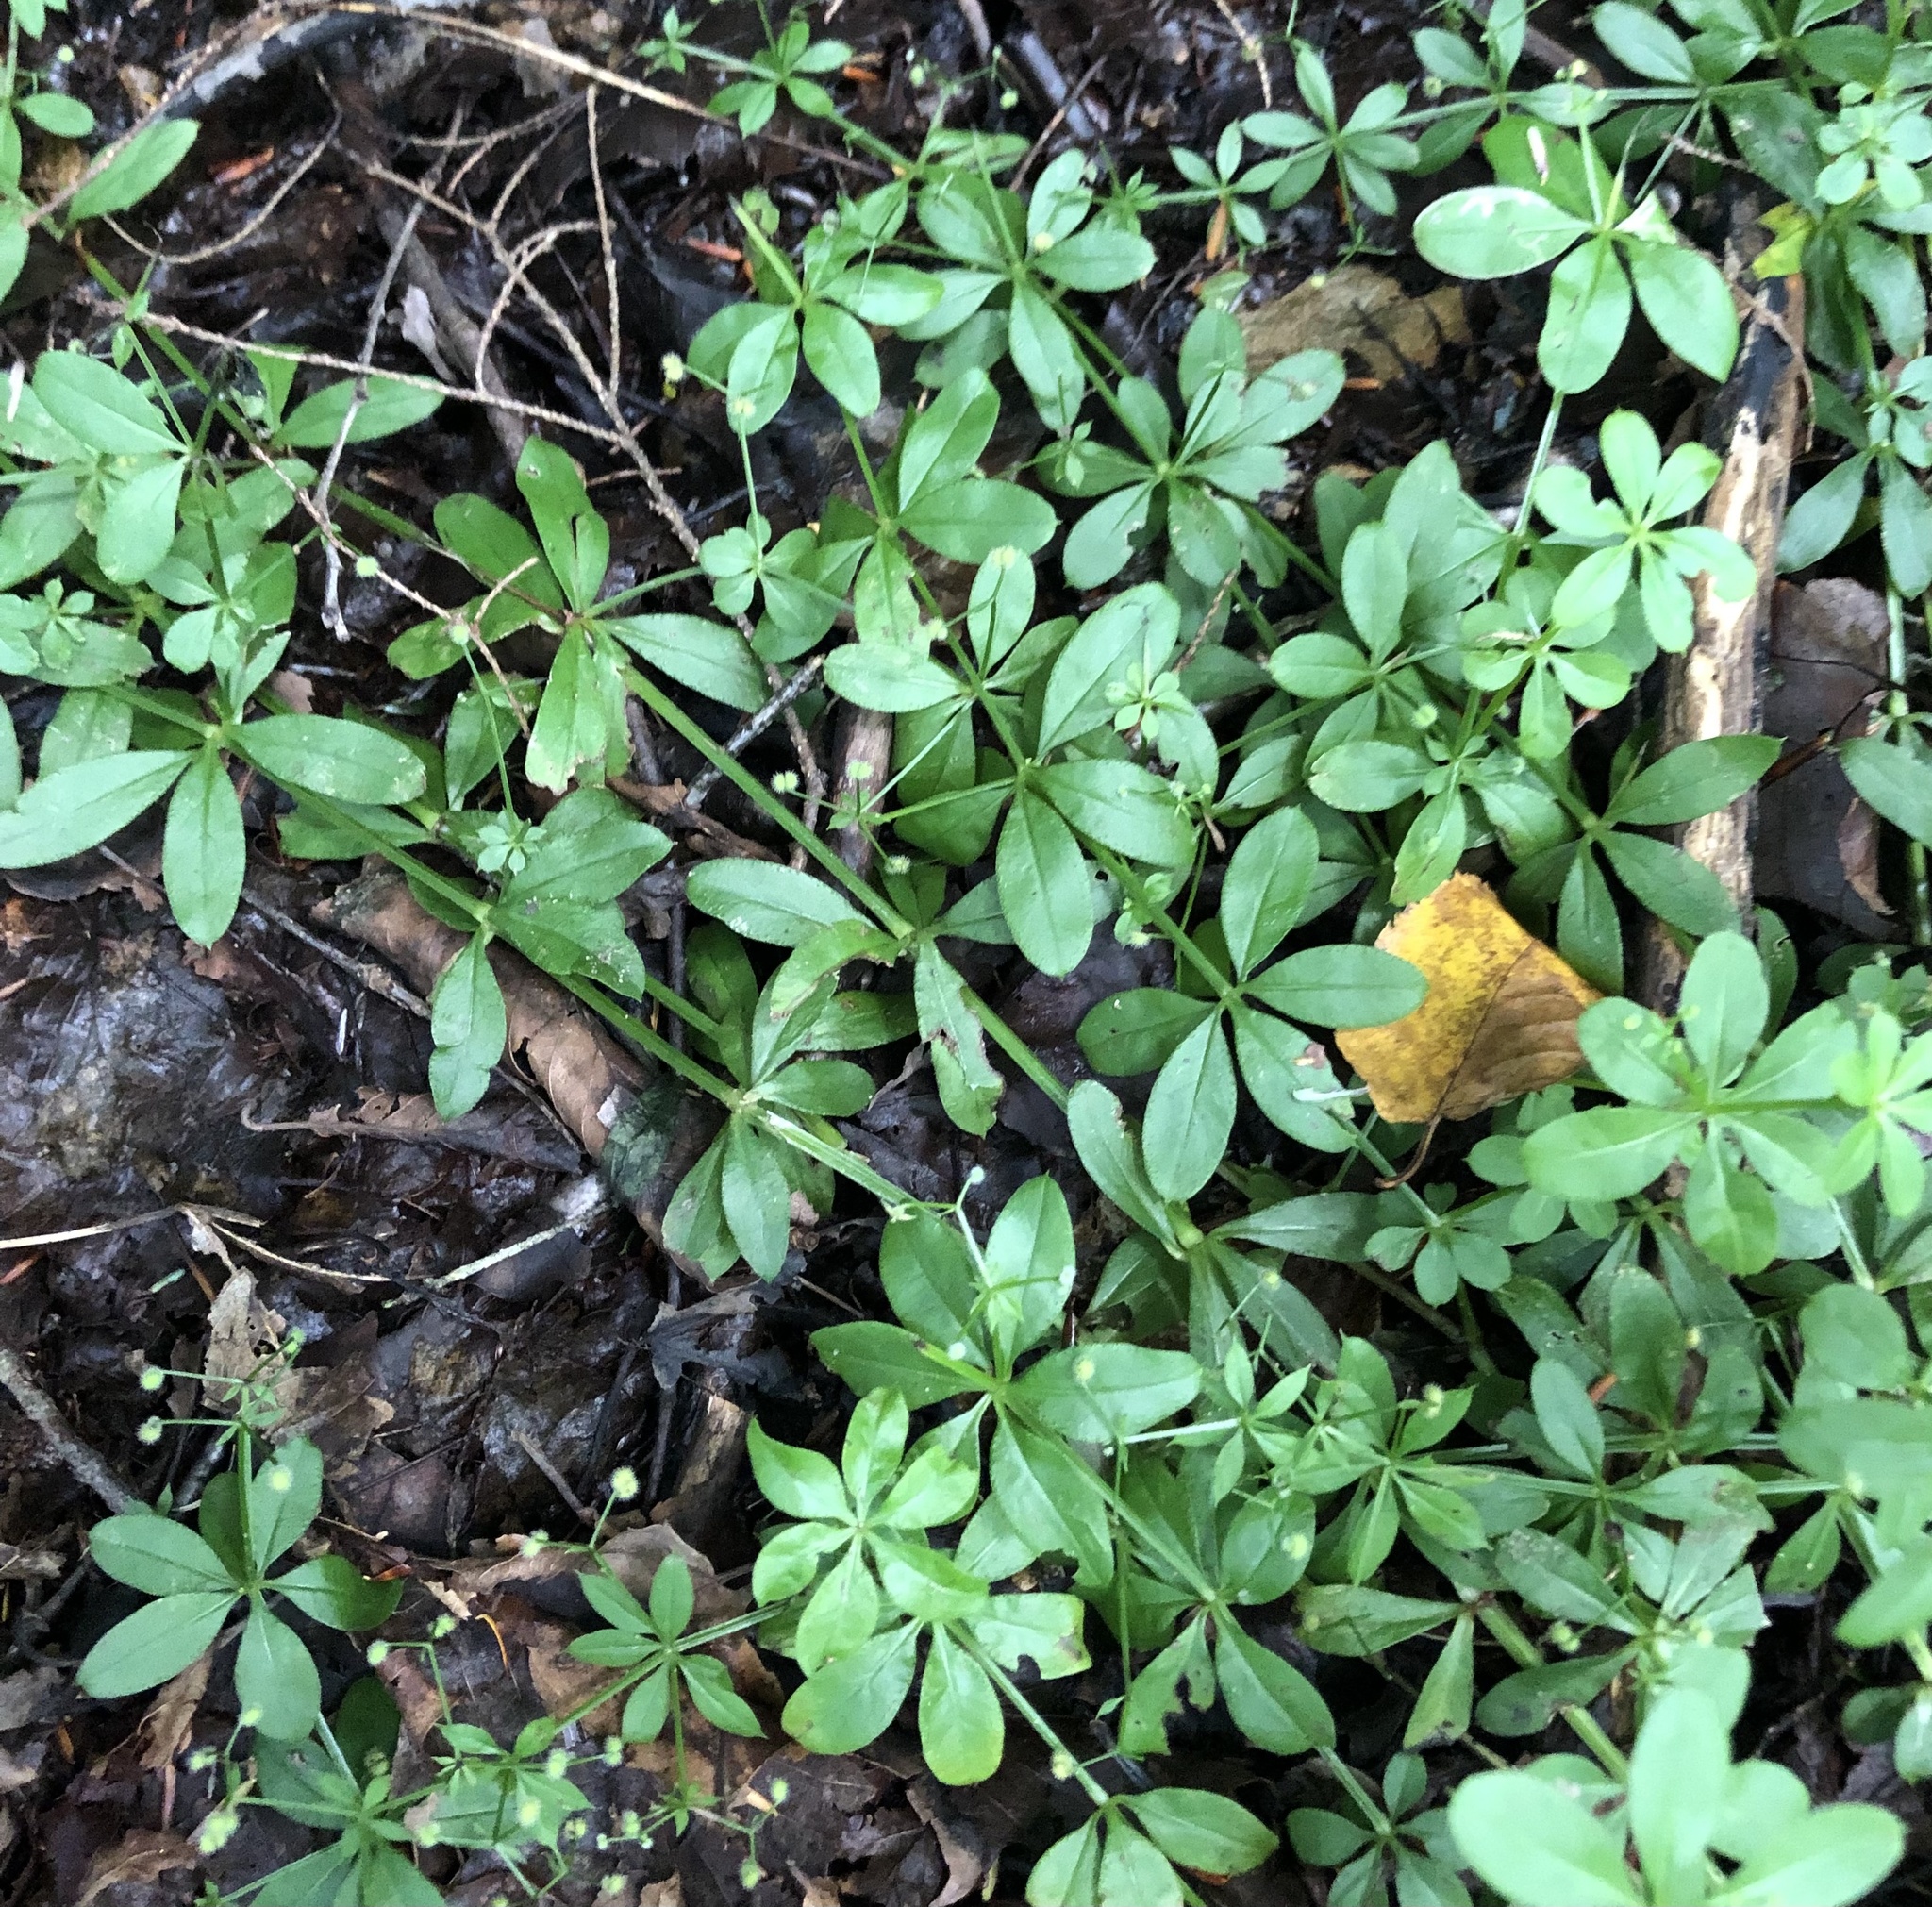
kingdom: Plantae
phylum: Tracheophyta
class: Magnoliopsida
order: Gentianales
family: Rubiaceae
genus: Galium
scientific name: Galium triflorum
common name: Fragrant bedstraw
